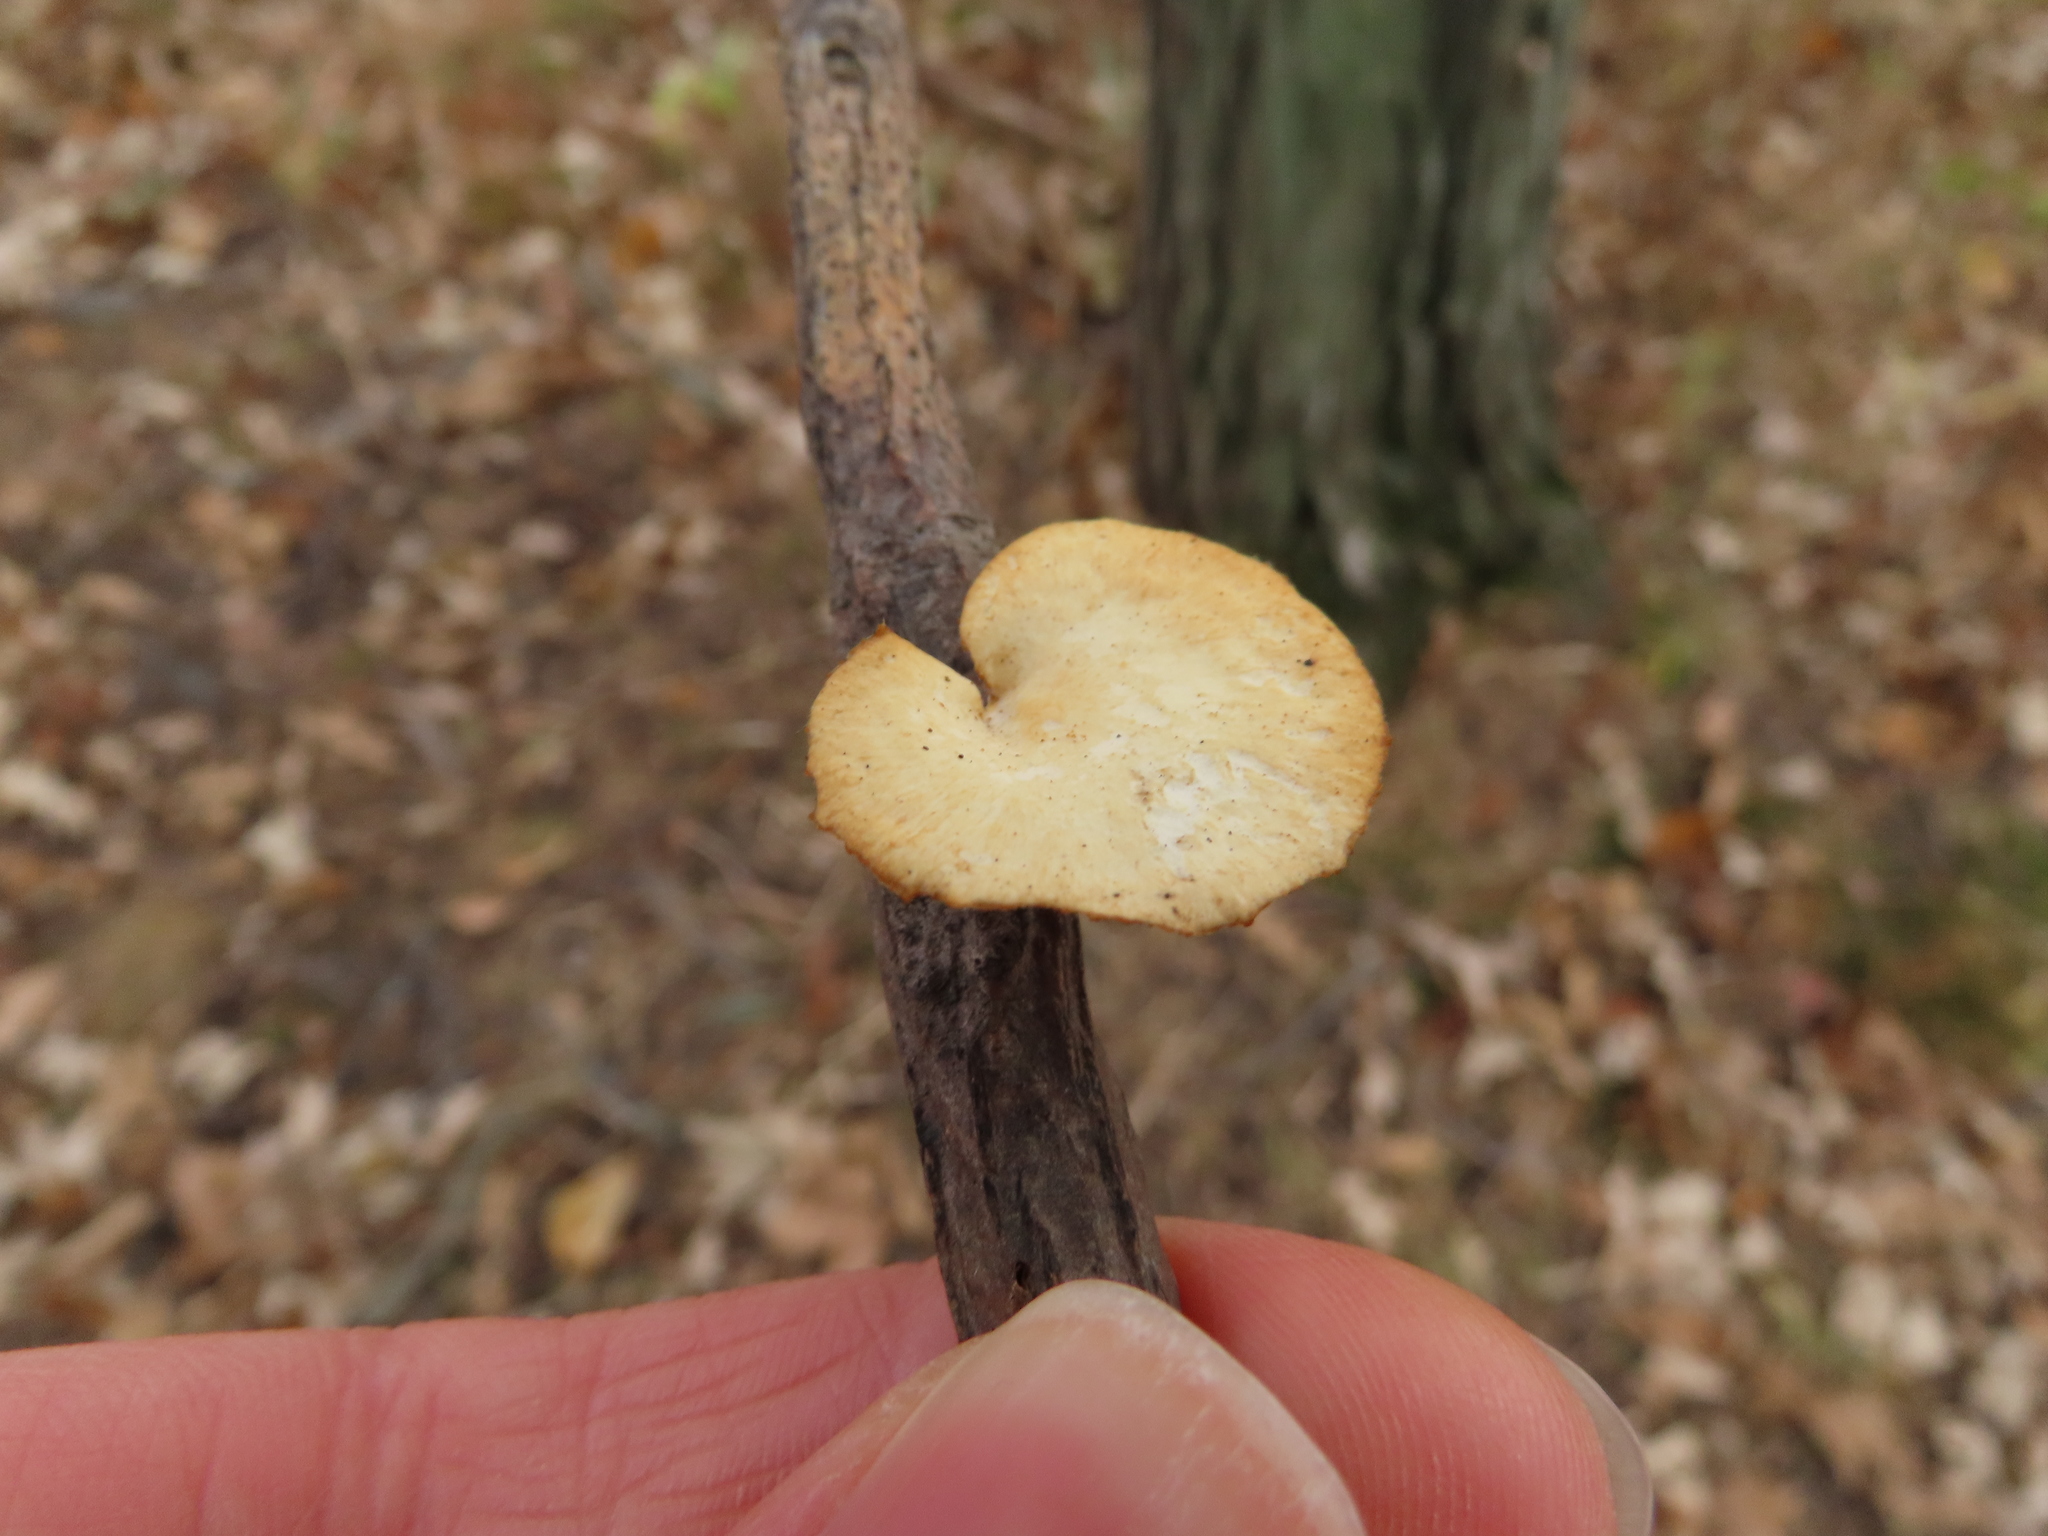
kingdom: Fungi
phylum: Basidiomycota
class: Agaricomycetes
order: Polyporales
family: Polyporaceae
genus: Neofavolus
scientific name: Neofavolus alveolaris
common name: Hexagonal-pored polypore
